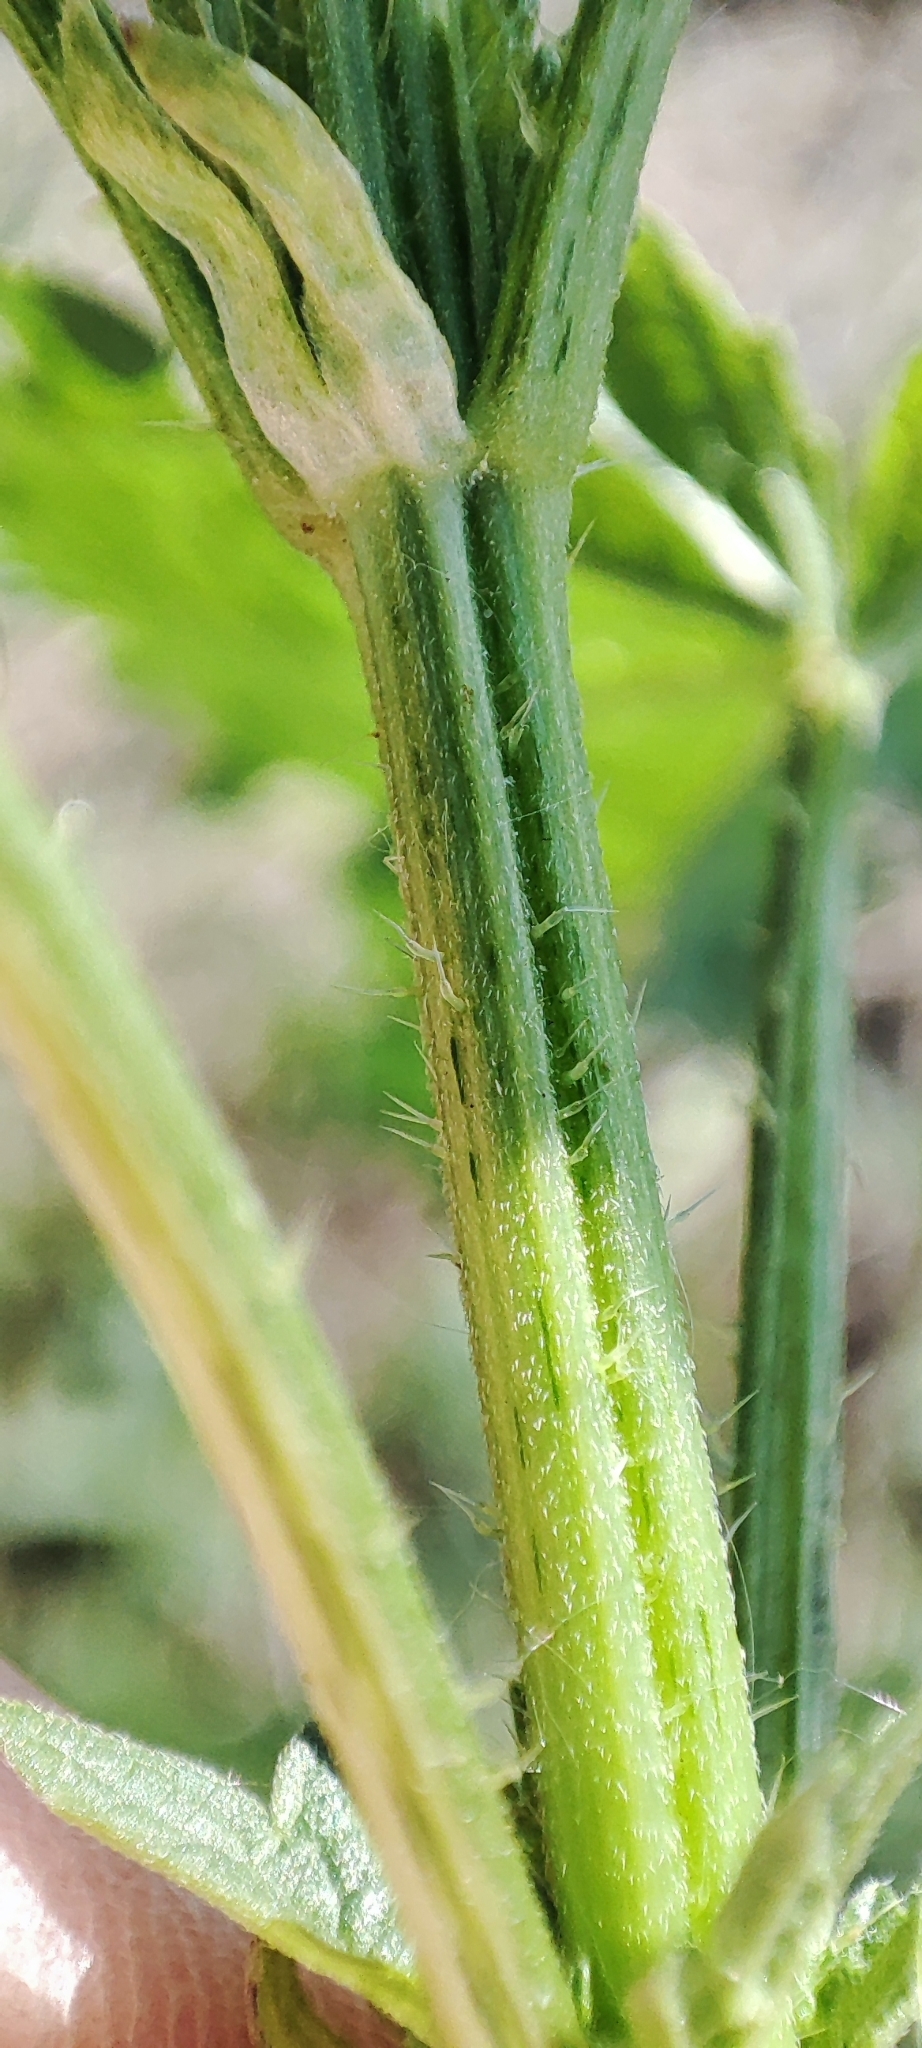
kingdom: Plantae
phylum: Tracheophyta
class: Magnoliopsida
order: Rosales
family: Urticaceae
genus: Urtica
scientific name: Urtica dioica
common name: Common nettle
